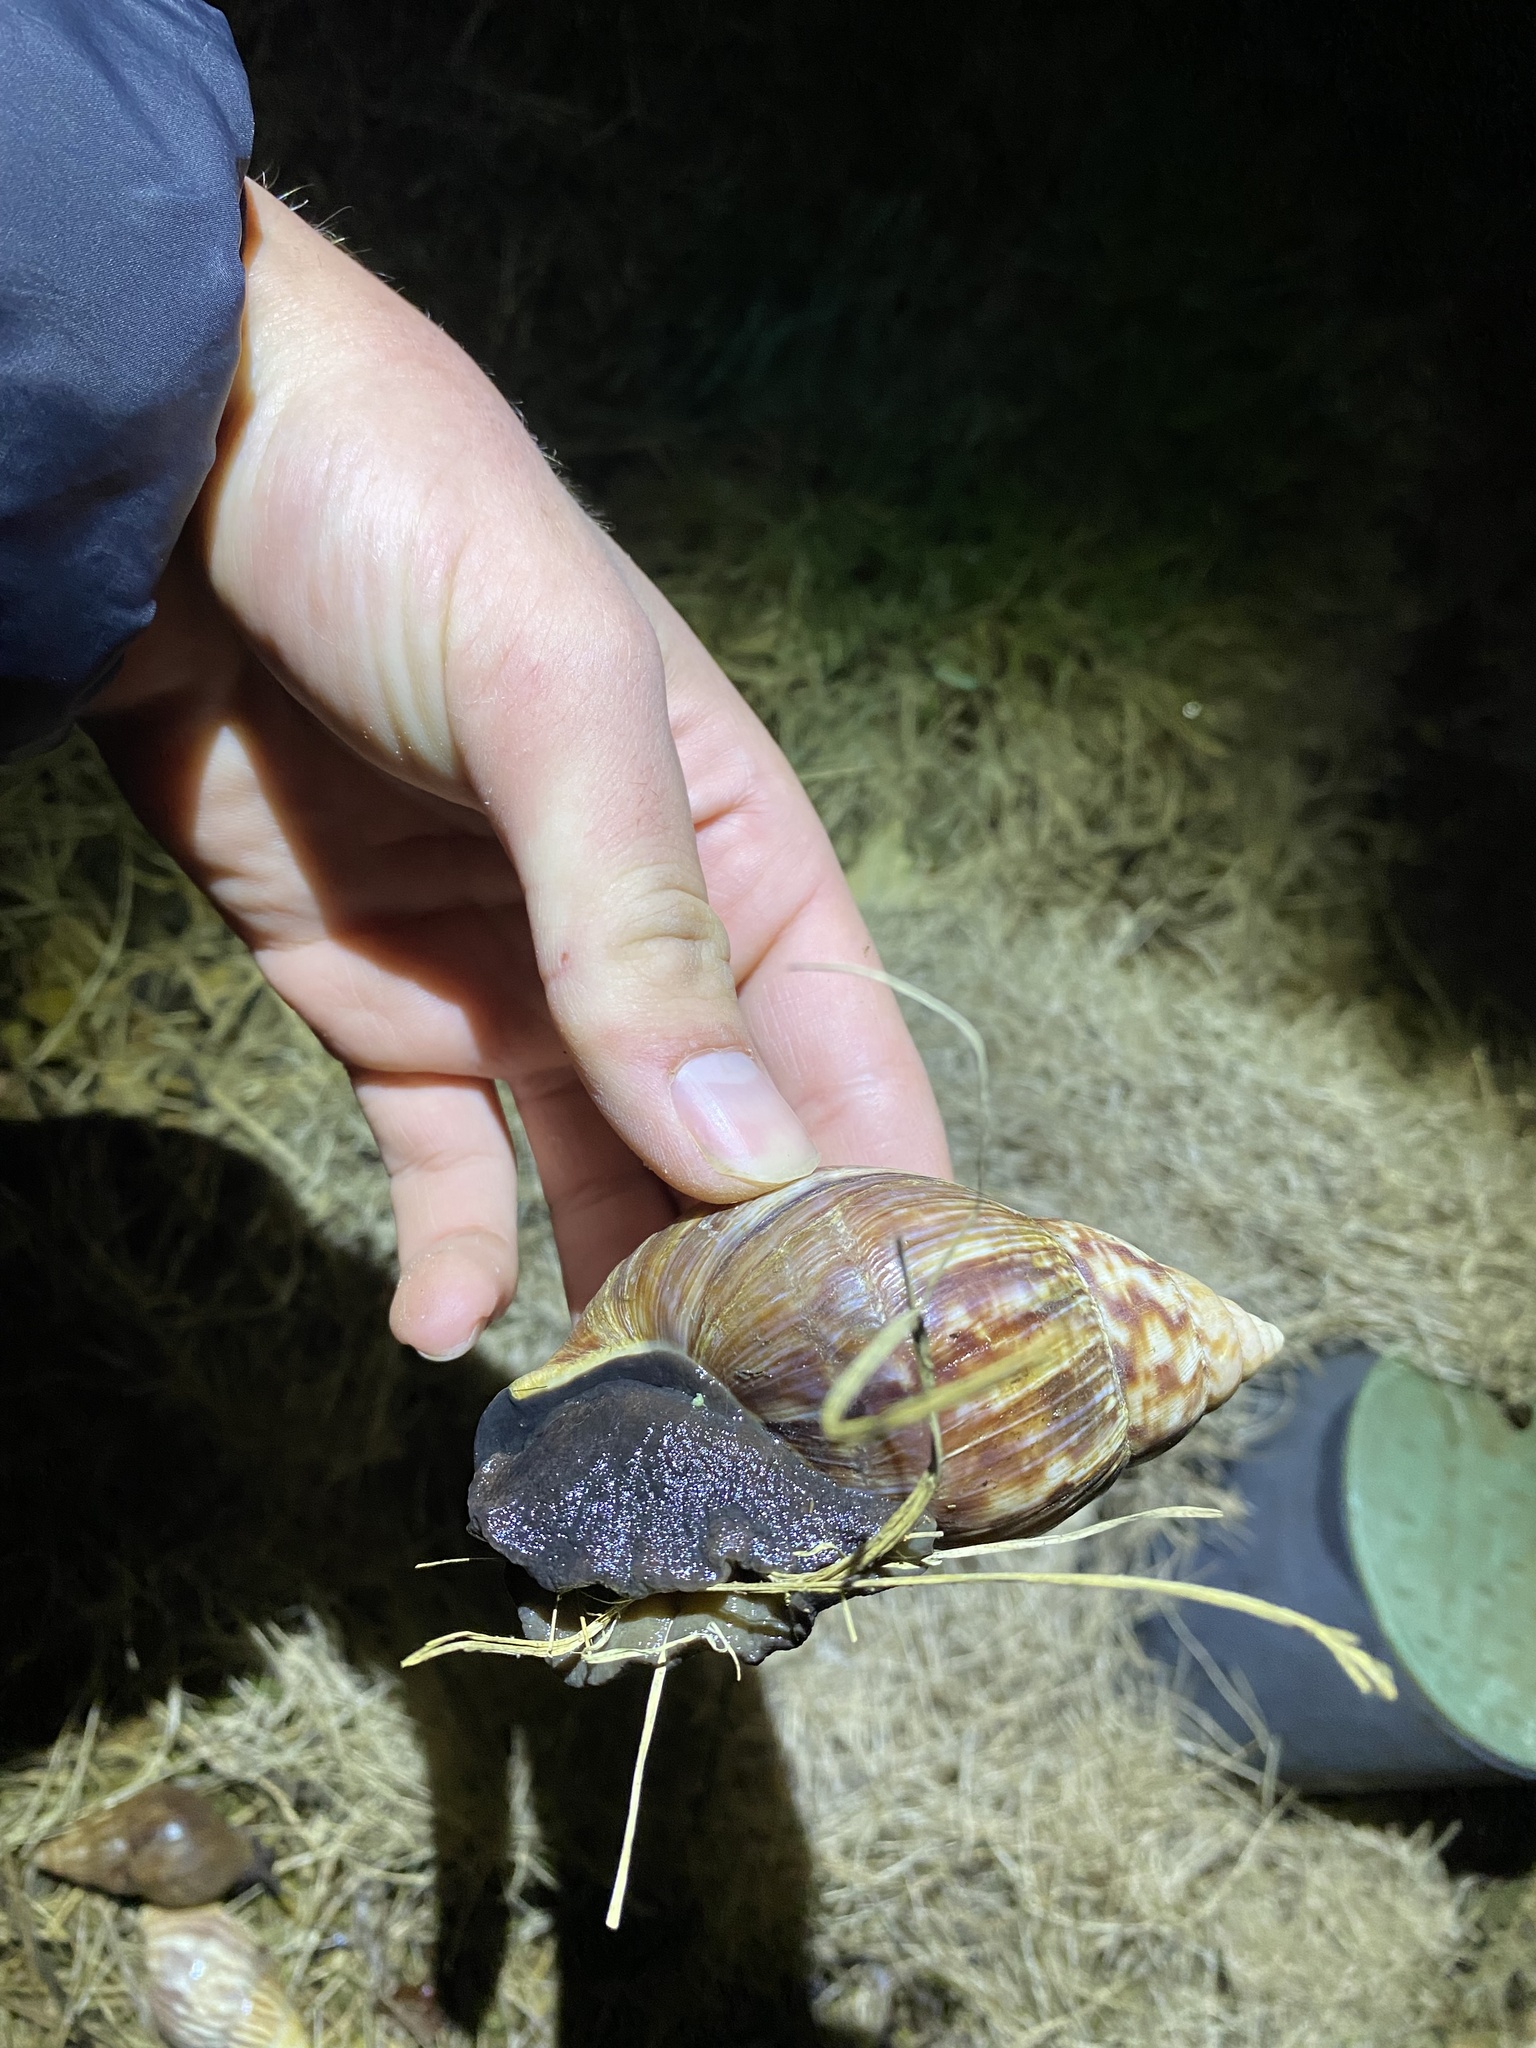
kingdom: Animalia
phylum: Mollusca
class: Gastropoda
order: Stylommatophora
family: Achatinidae
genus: Lissachatina
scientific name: Lissachatina fulica
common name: Giant african snail
